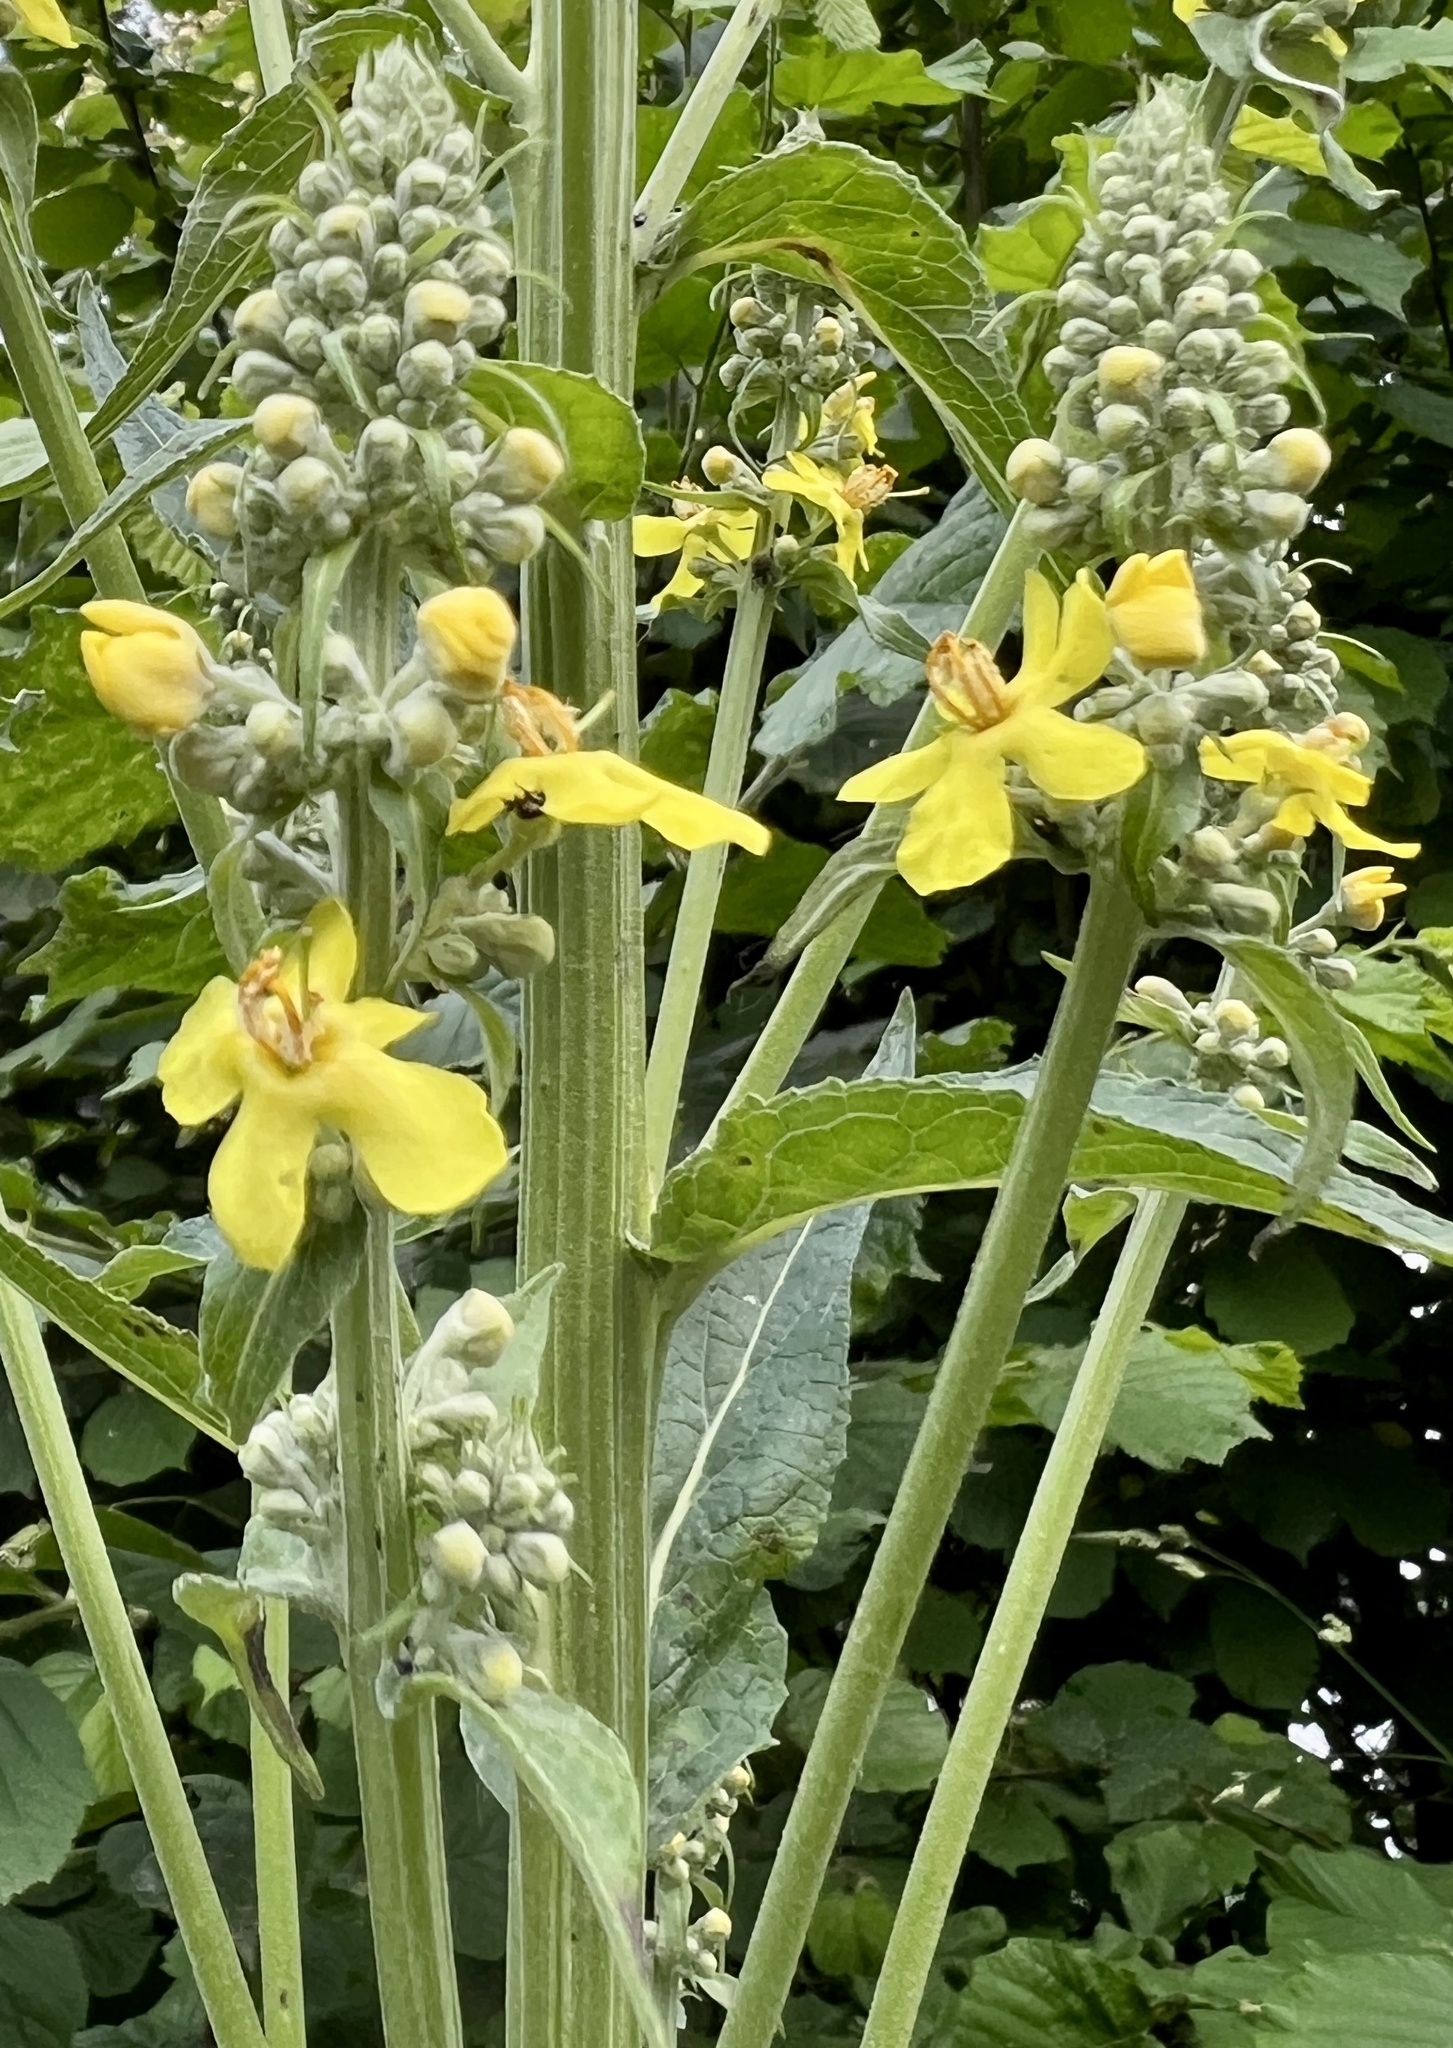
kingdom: Plantae
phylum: Tracheophyta
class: Magnoliopsida
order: Lamiales
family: Scrophulariaceae
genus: Verbascum
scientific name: Verbascum lychnitis
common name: White mullein
